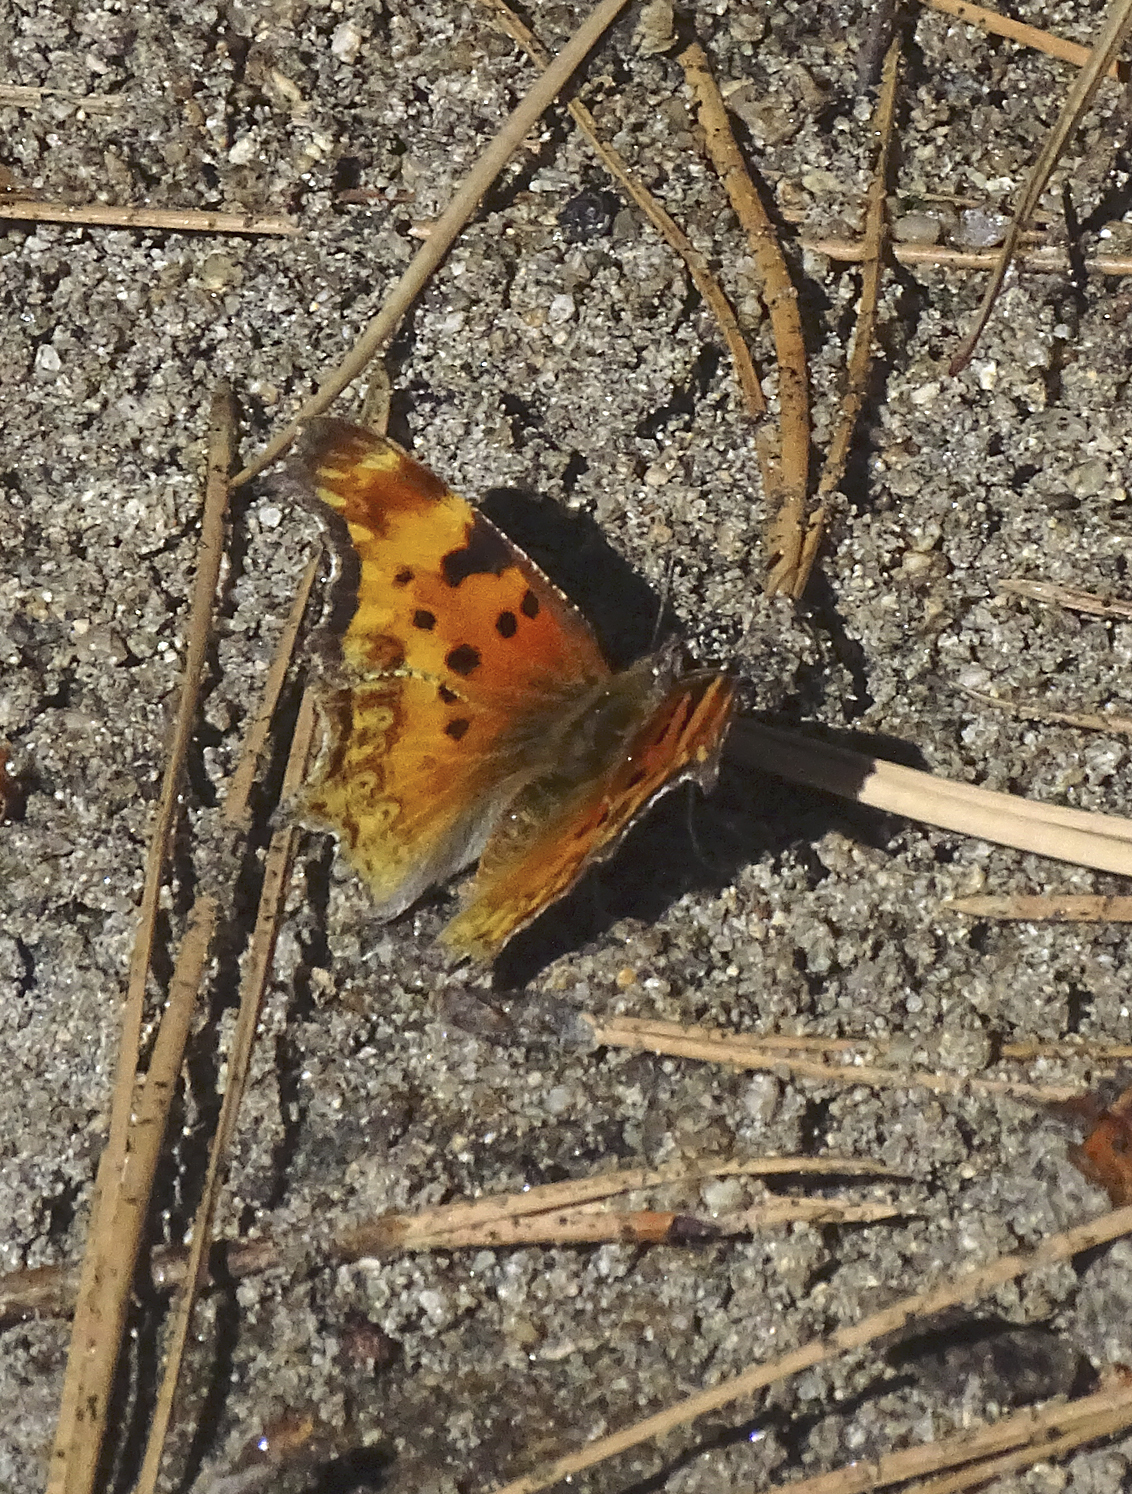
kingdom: Animalia
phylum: Arthropoda
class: Insecta
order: Lepidoptera
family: Nymphalidae
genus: Polygonia
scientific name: Polygonia gracilis
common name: Hoary comma
